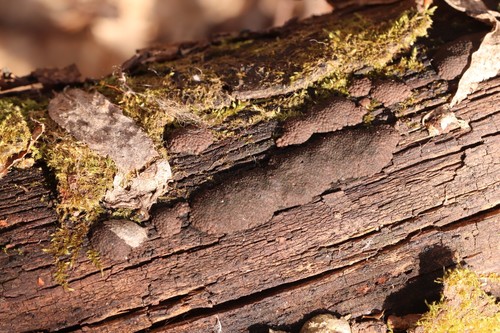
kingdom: Fungi
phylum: Ascomycota
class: Sordariomycetes
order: Xylariales
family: Hypoxylaceae
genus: Hypoxylon
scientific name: Hypoxylon rutilum
